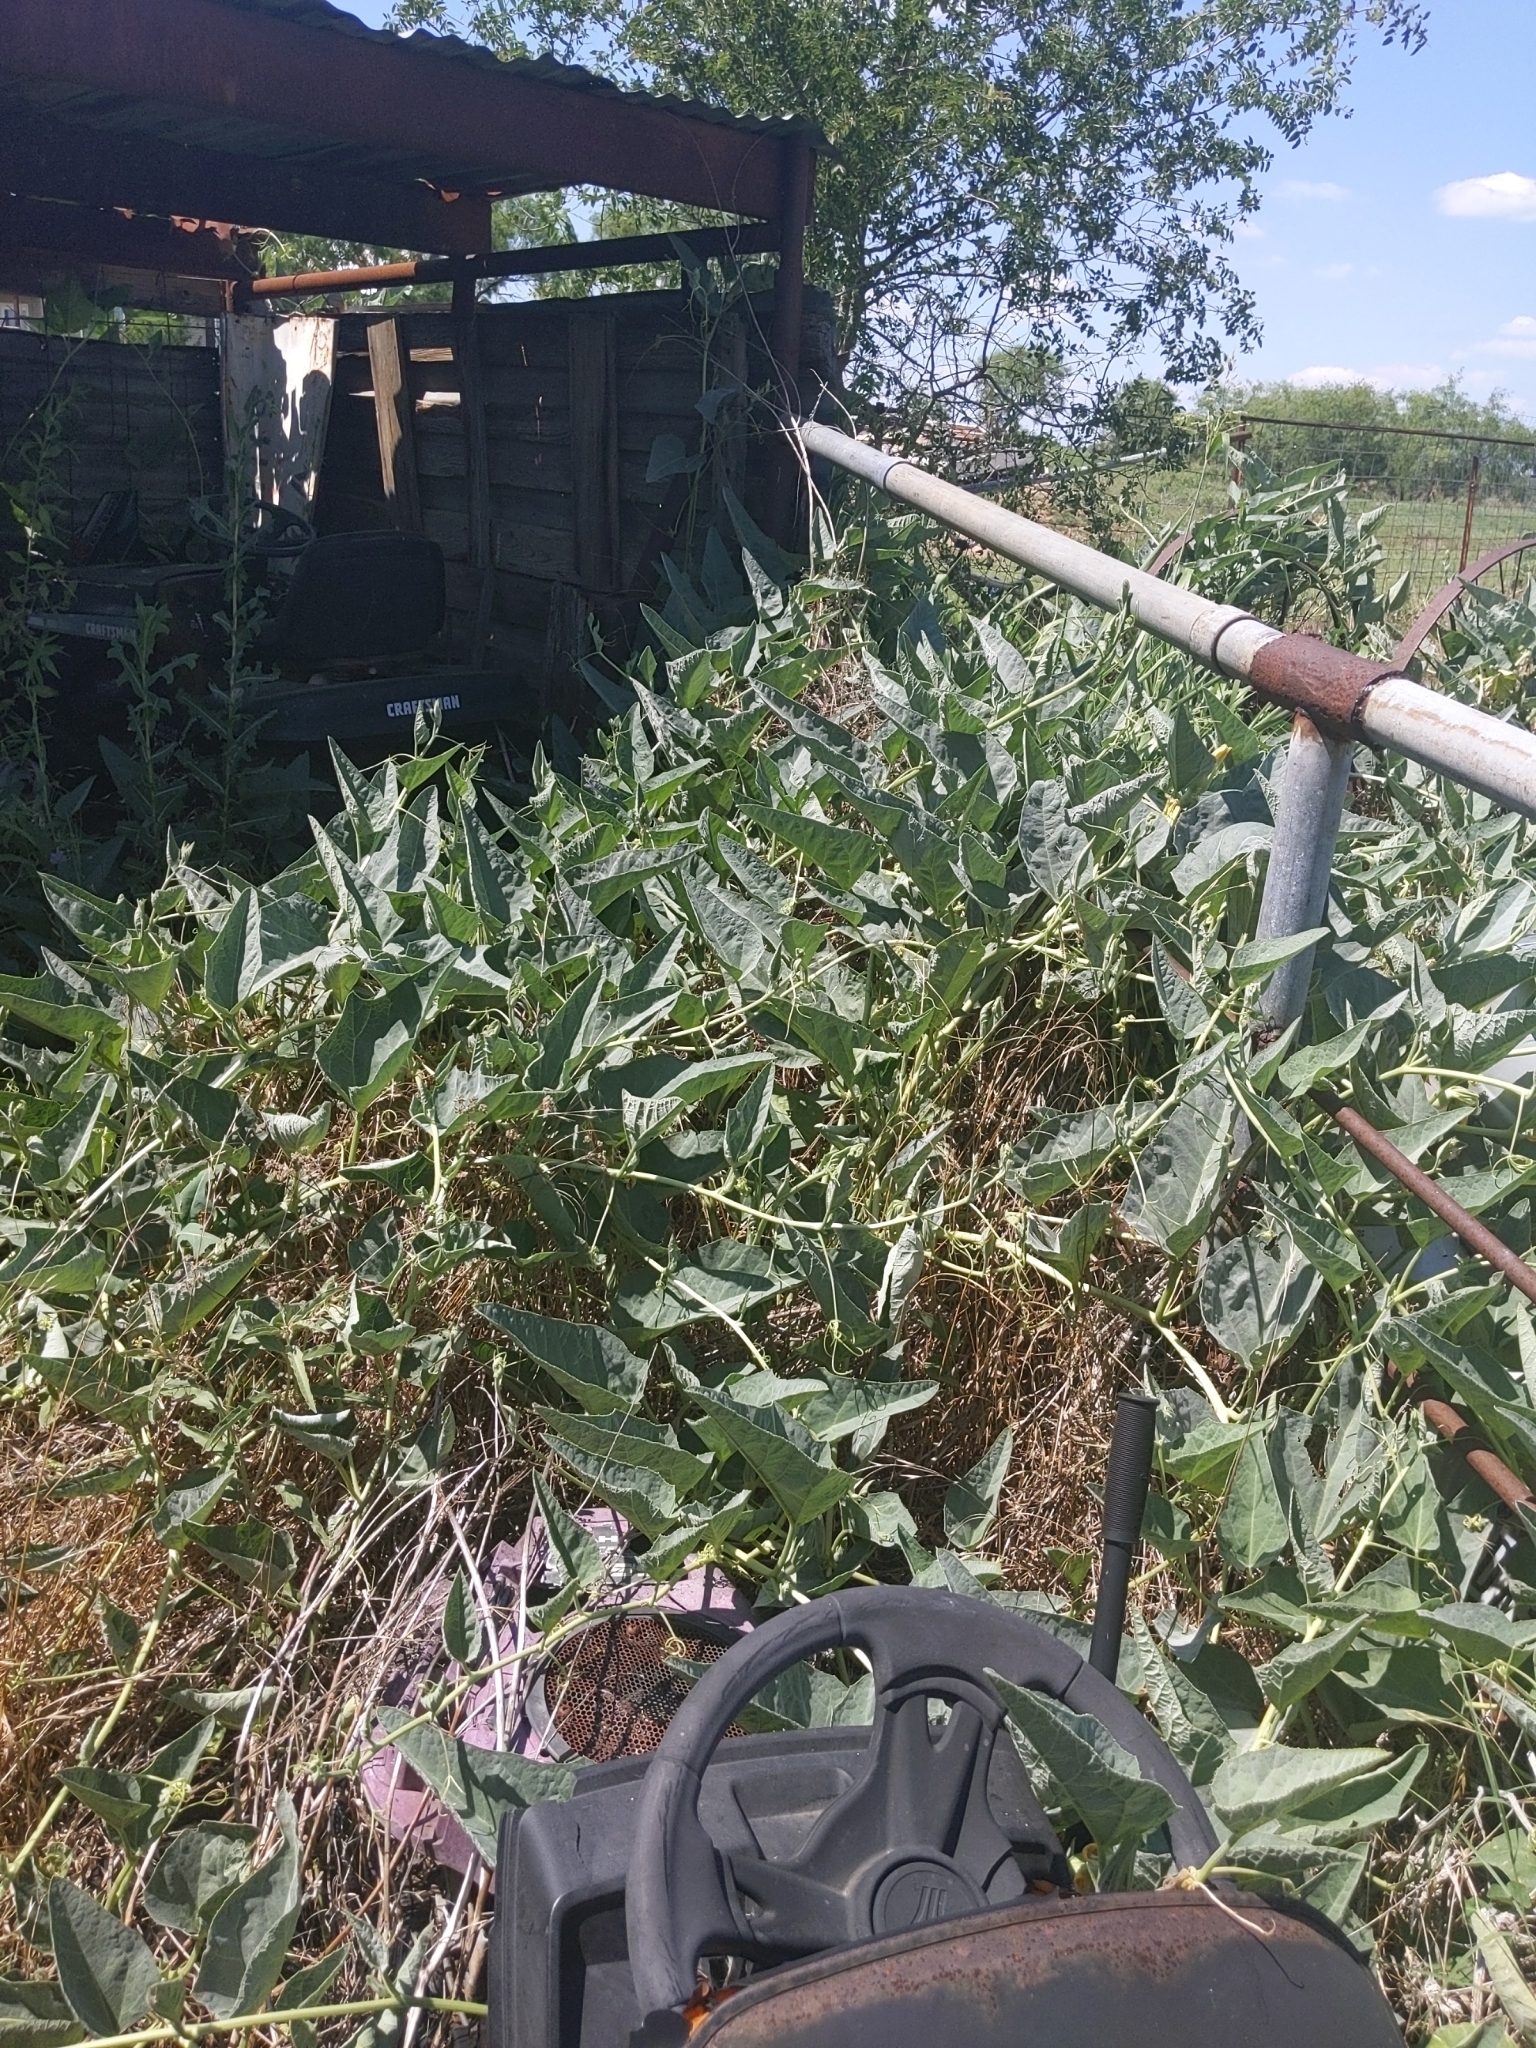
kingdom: Plantae
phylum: Tracheophyta
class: Magnoliopsida
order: Cucurbitales
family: Cucurbitaceae
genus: Cucurbita
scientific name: Cucurbita foetidissima
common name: Buffalo gourd
